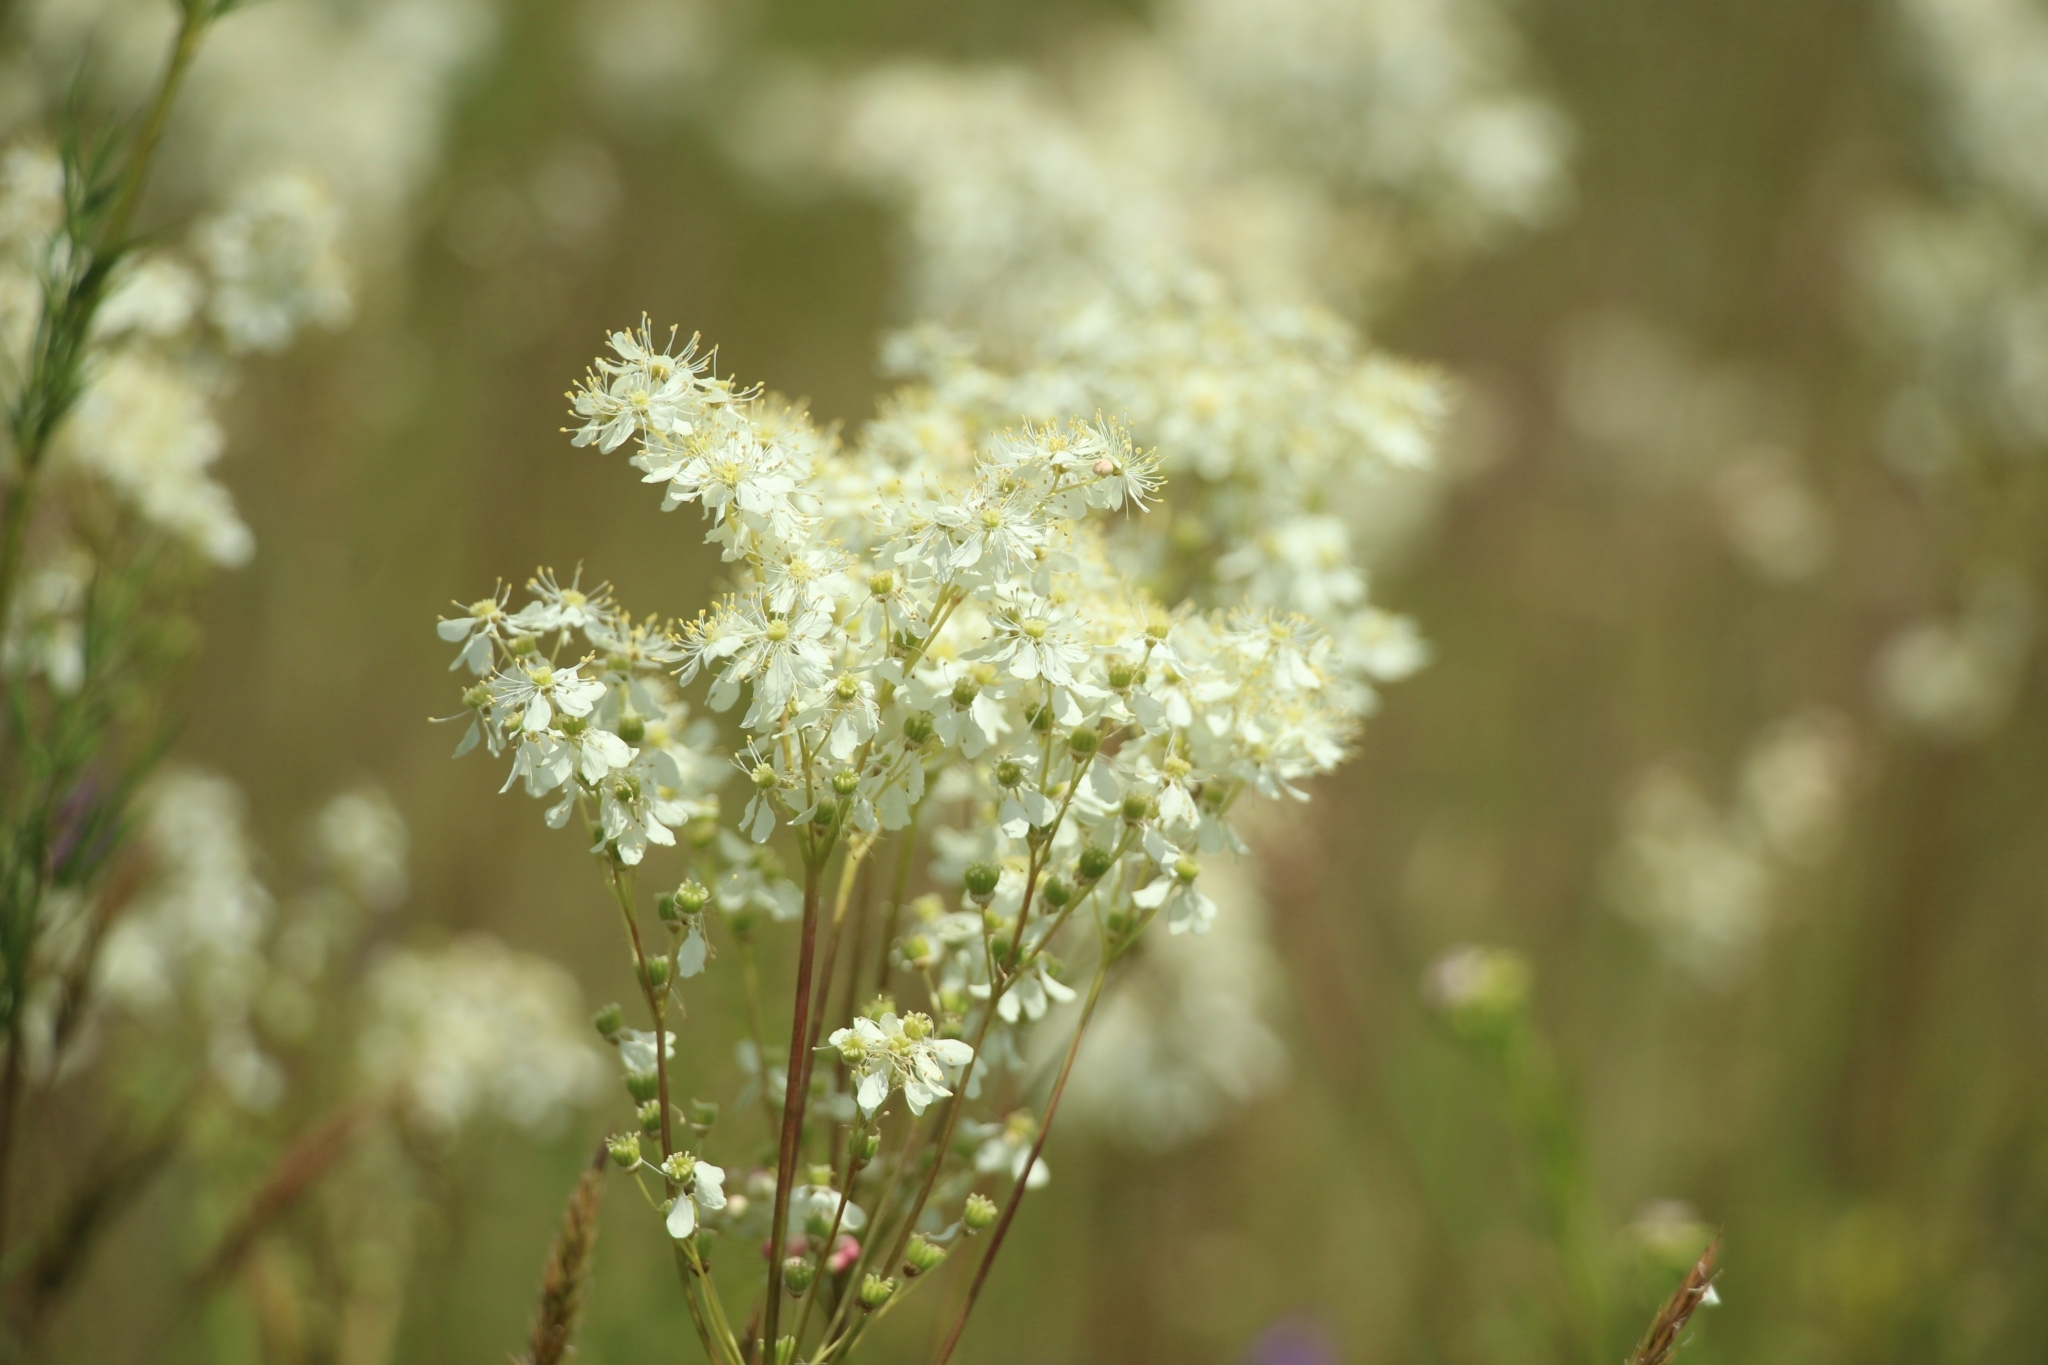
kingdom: Plantae
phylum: Tracheophyta
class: Magnoliopsida
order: Rosales
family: Rosaceae
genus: Filipendula
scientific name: Filipendula vulgaris
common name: Dropwort
